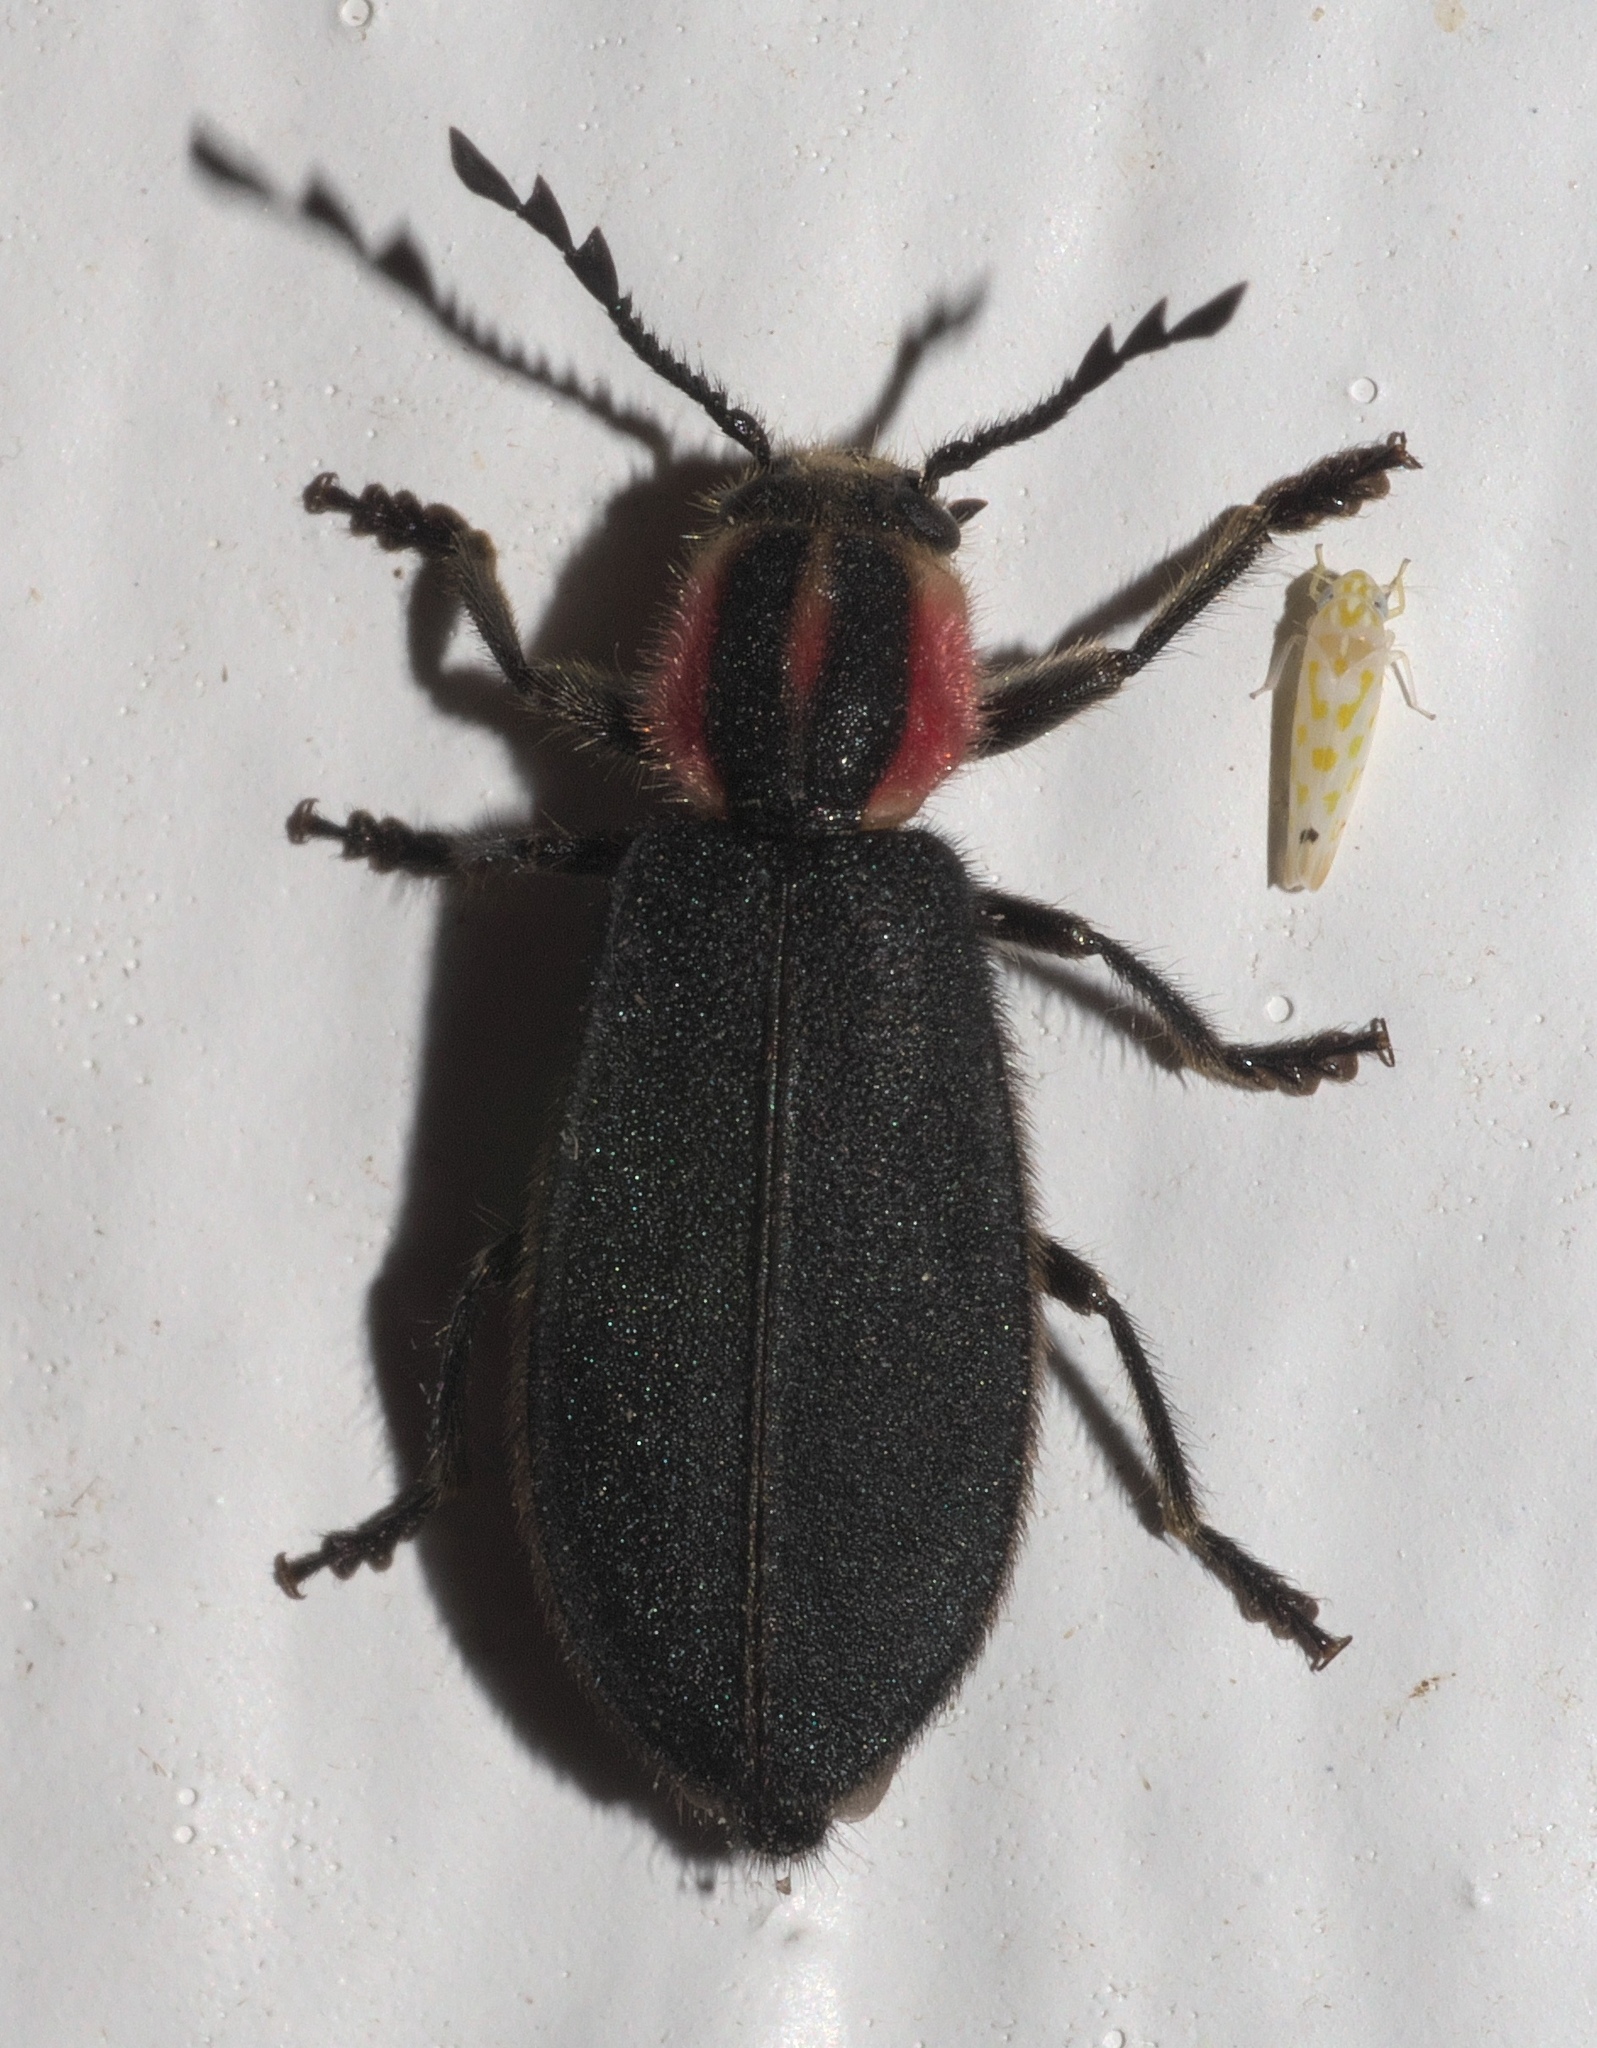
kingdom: Animalia
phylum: Arthropoda
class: Insecta
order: Coleoptera
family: Cleridae
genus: Chariessa
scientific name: Chariessa pilosa
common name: Pilose checkered beetle
